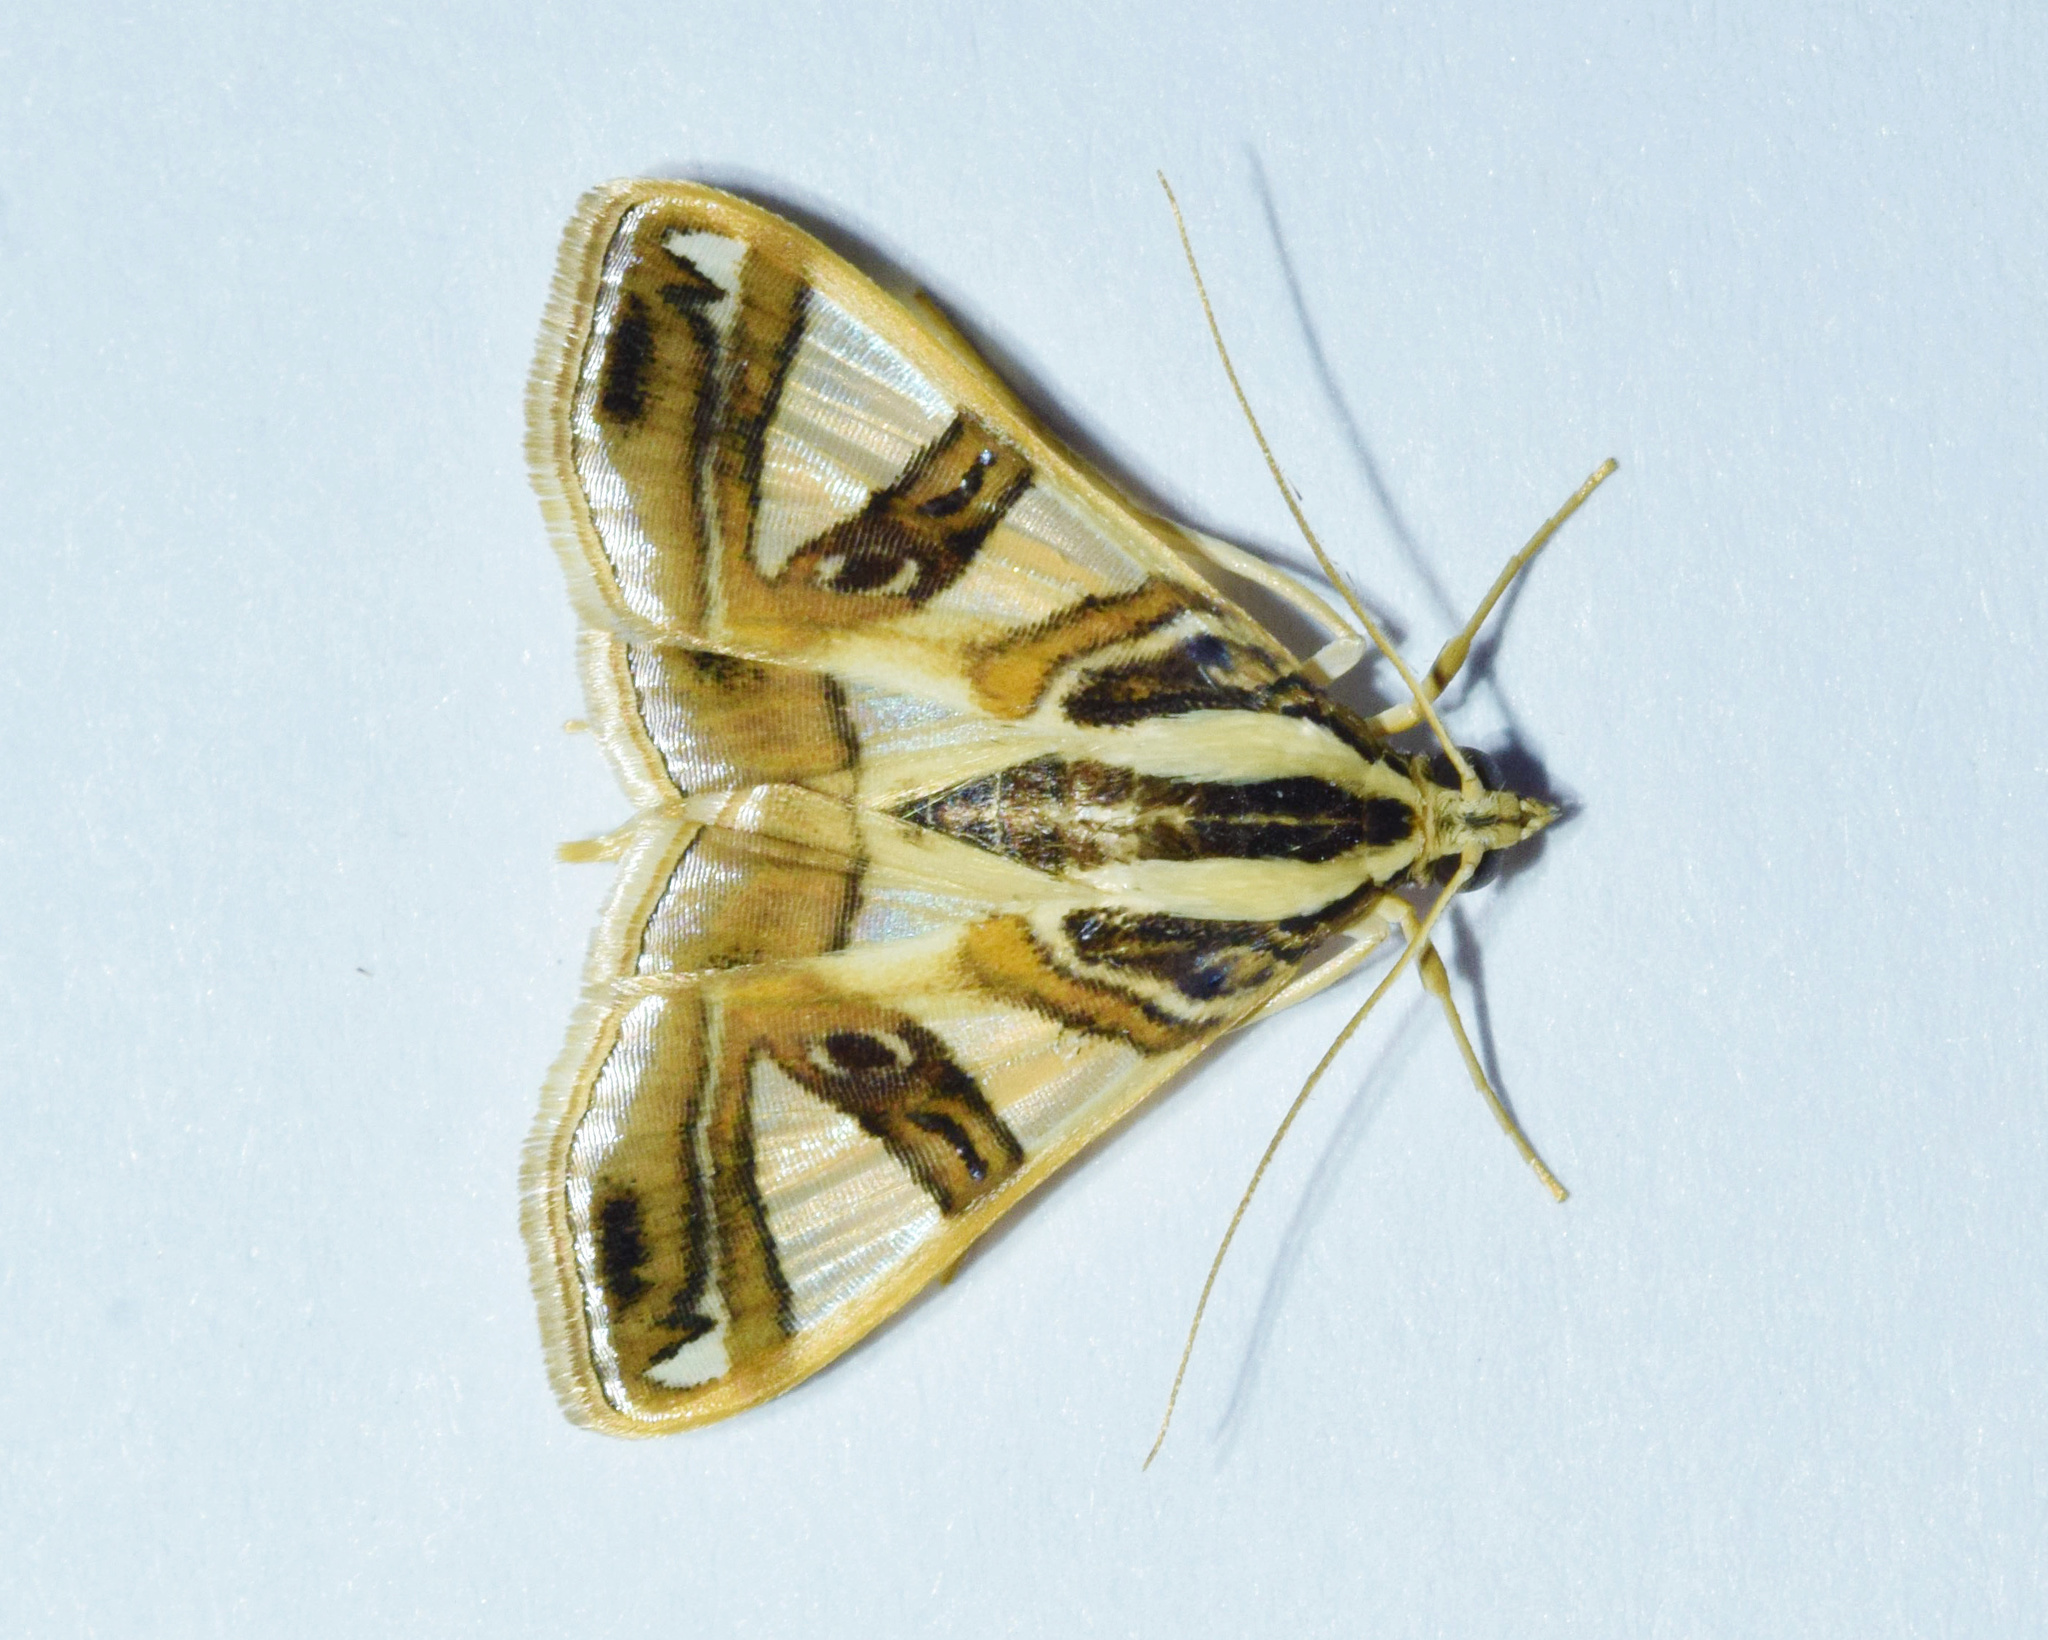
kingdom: Animalia
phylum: Arthropoda
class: Insecta
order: Lepidoptera
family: Crambidae
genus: Glyphodes
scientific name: Glyphodes sycina
